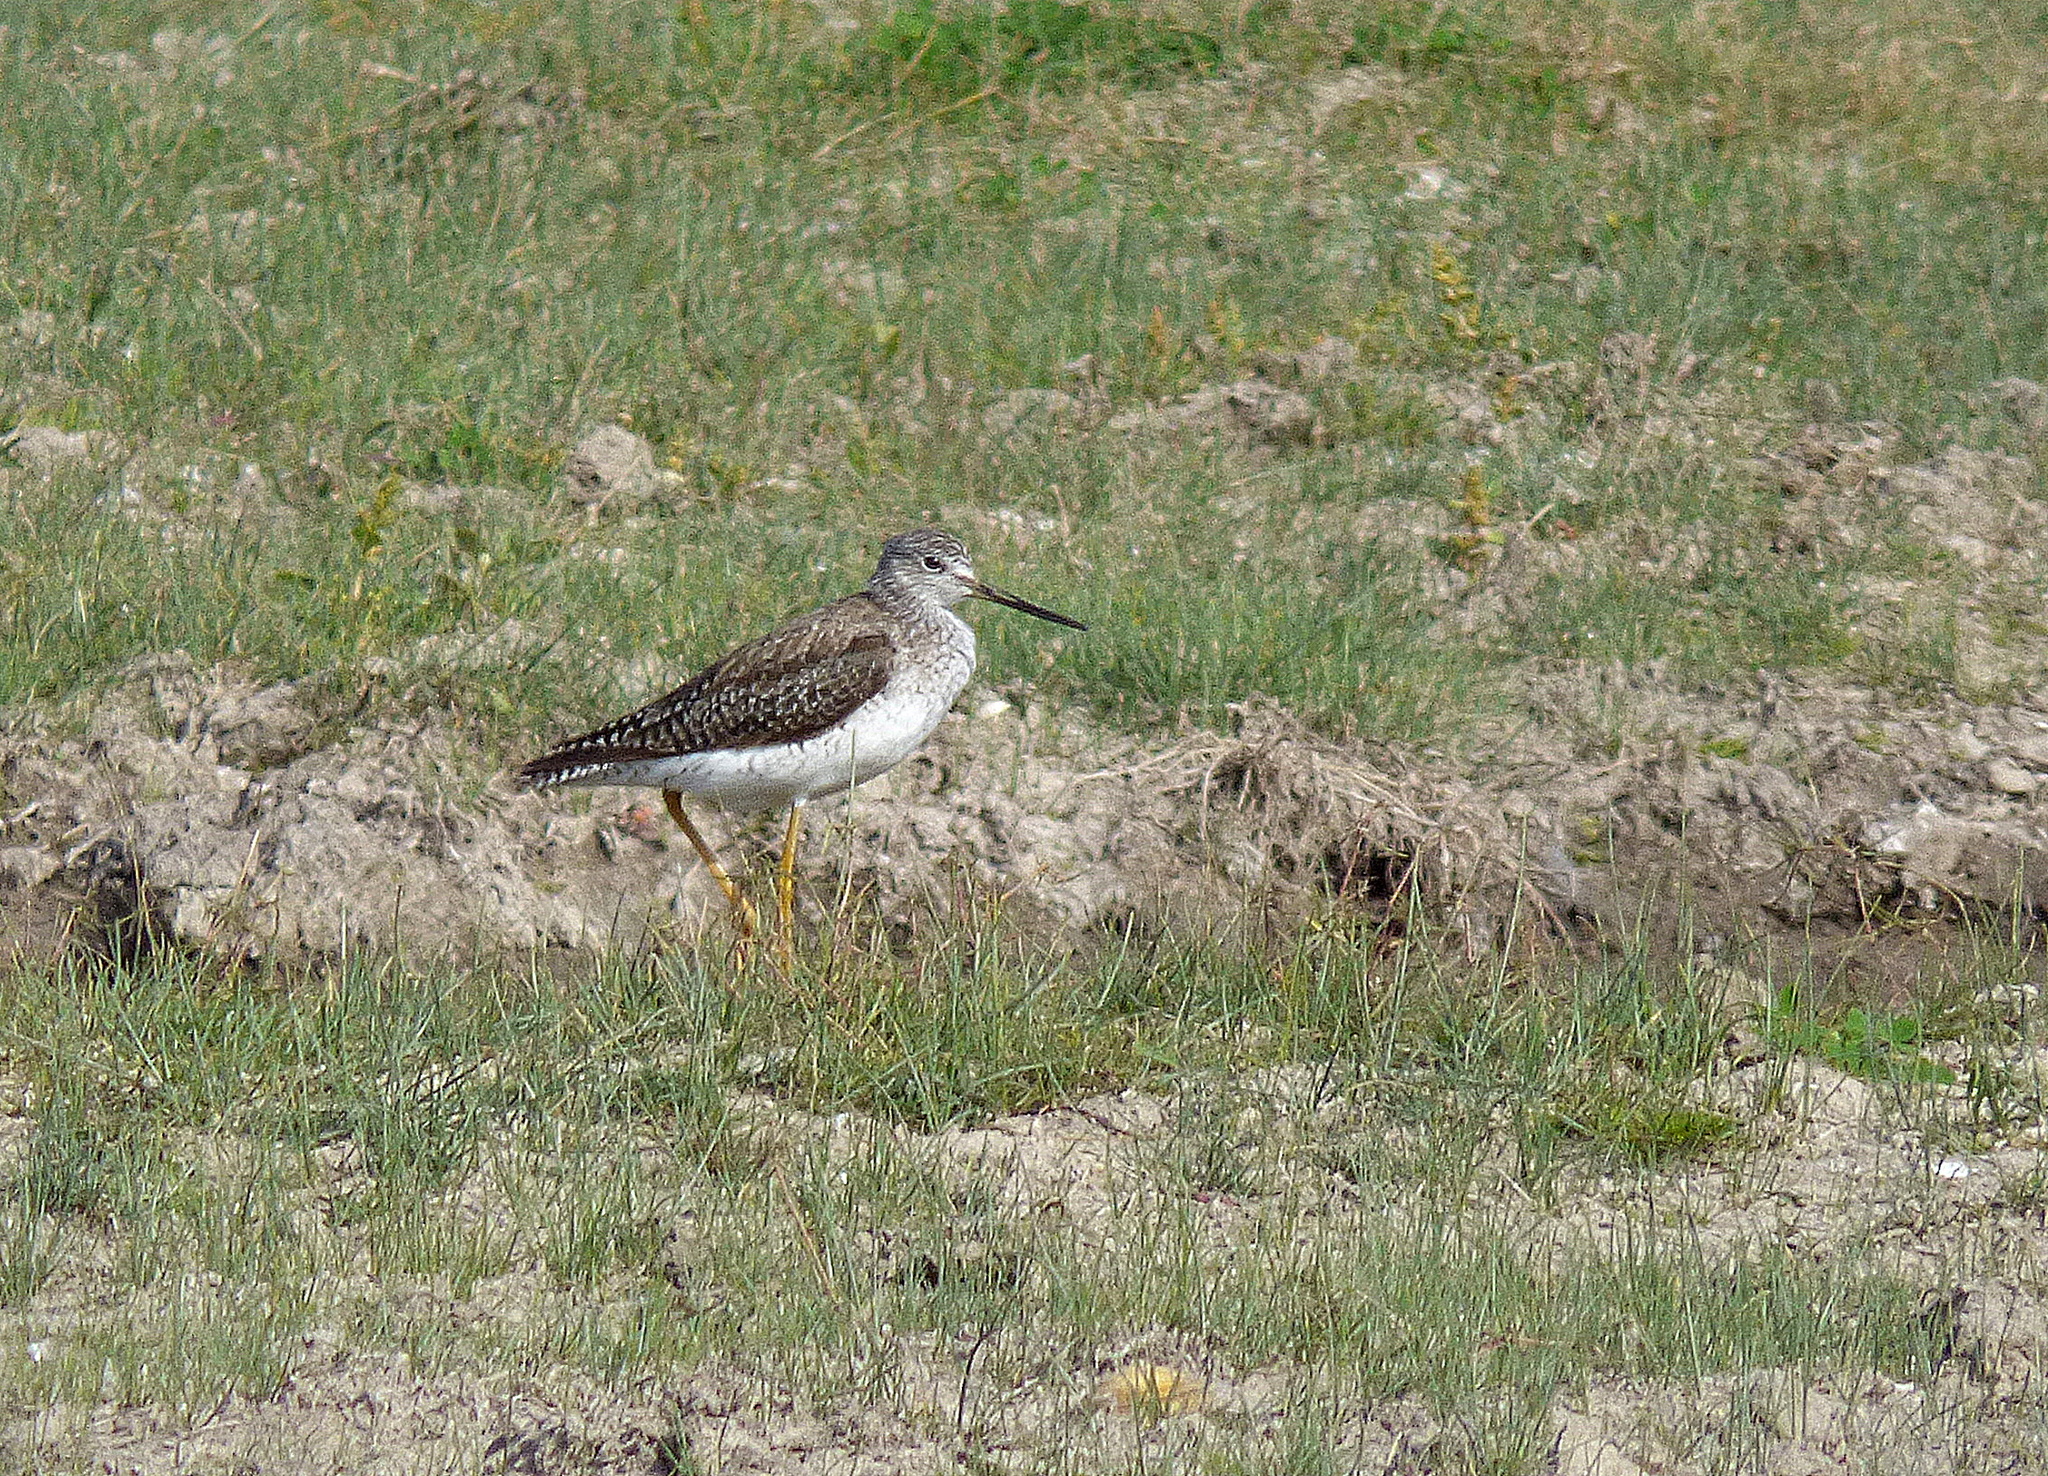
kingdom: Animalia
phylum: Chordata
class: Aves
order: Charadriiformes
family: Scolopacidae
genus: Tringa
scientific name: Tringa melanoleuca
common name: Greater yellowlegs
